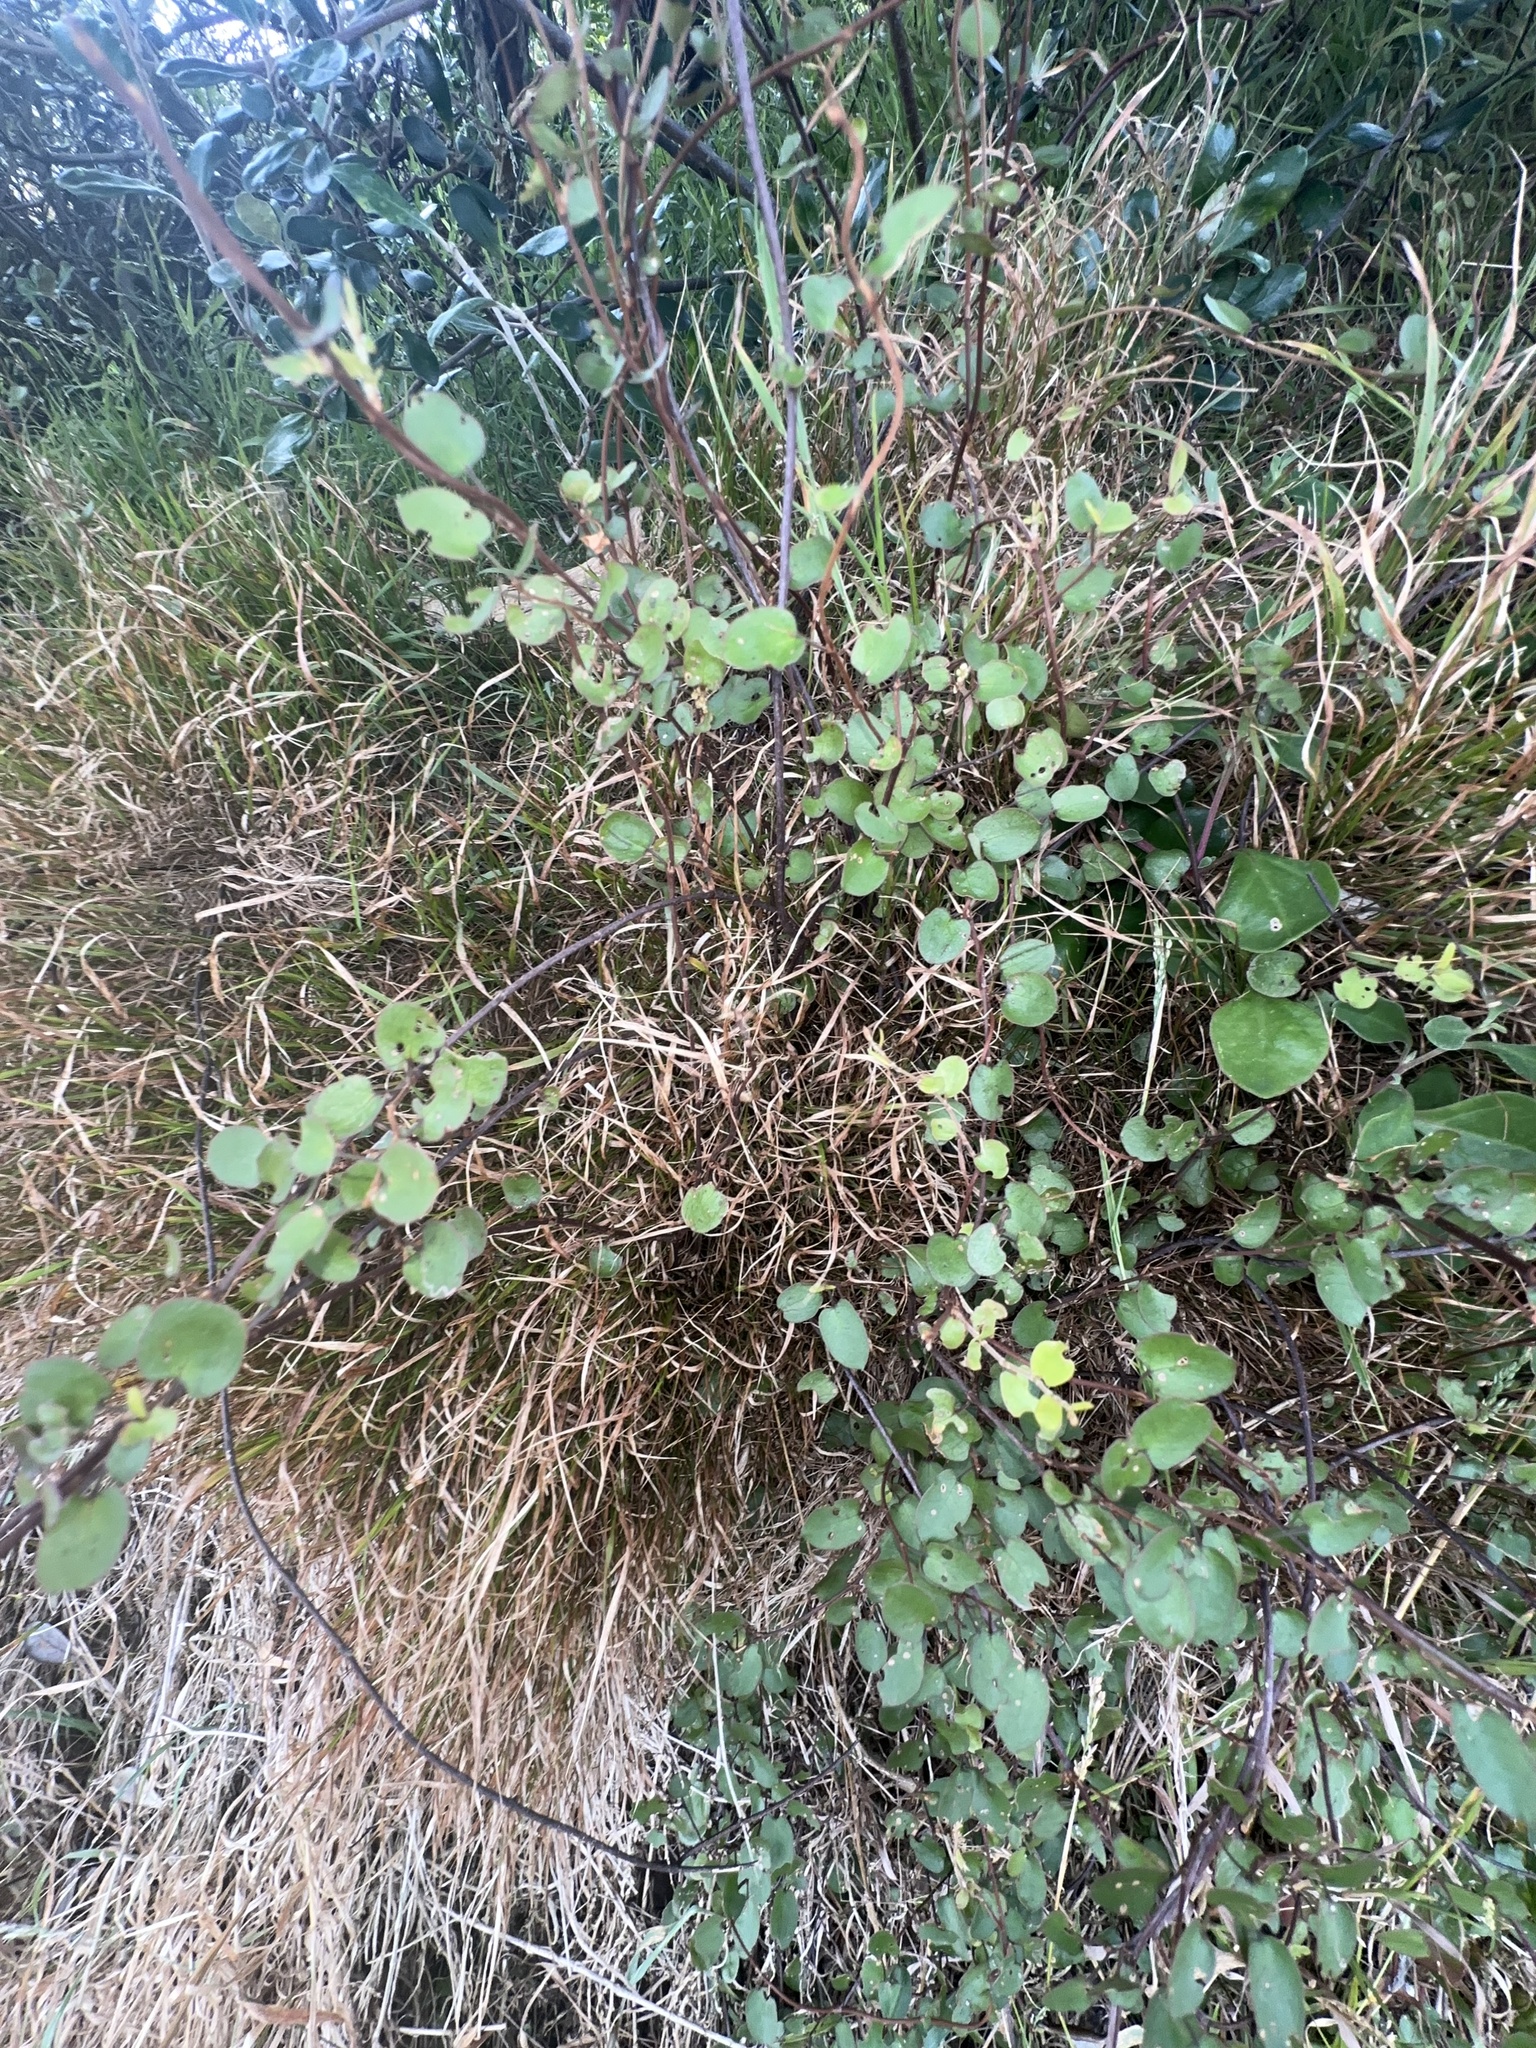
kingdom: Plantae
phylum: Tracheophyta
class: Magnoliopsida
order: Caryophyllales
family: Polygonaceae
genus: Muehlenbeckia
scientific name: Muehlenbeckia australis
